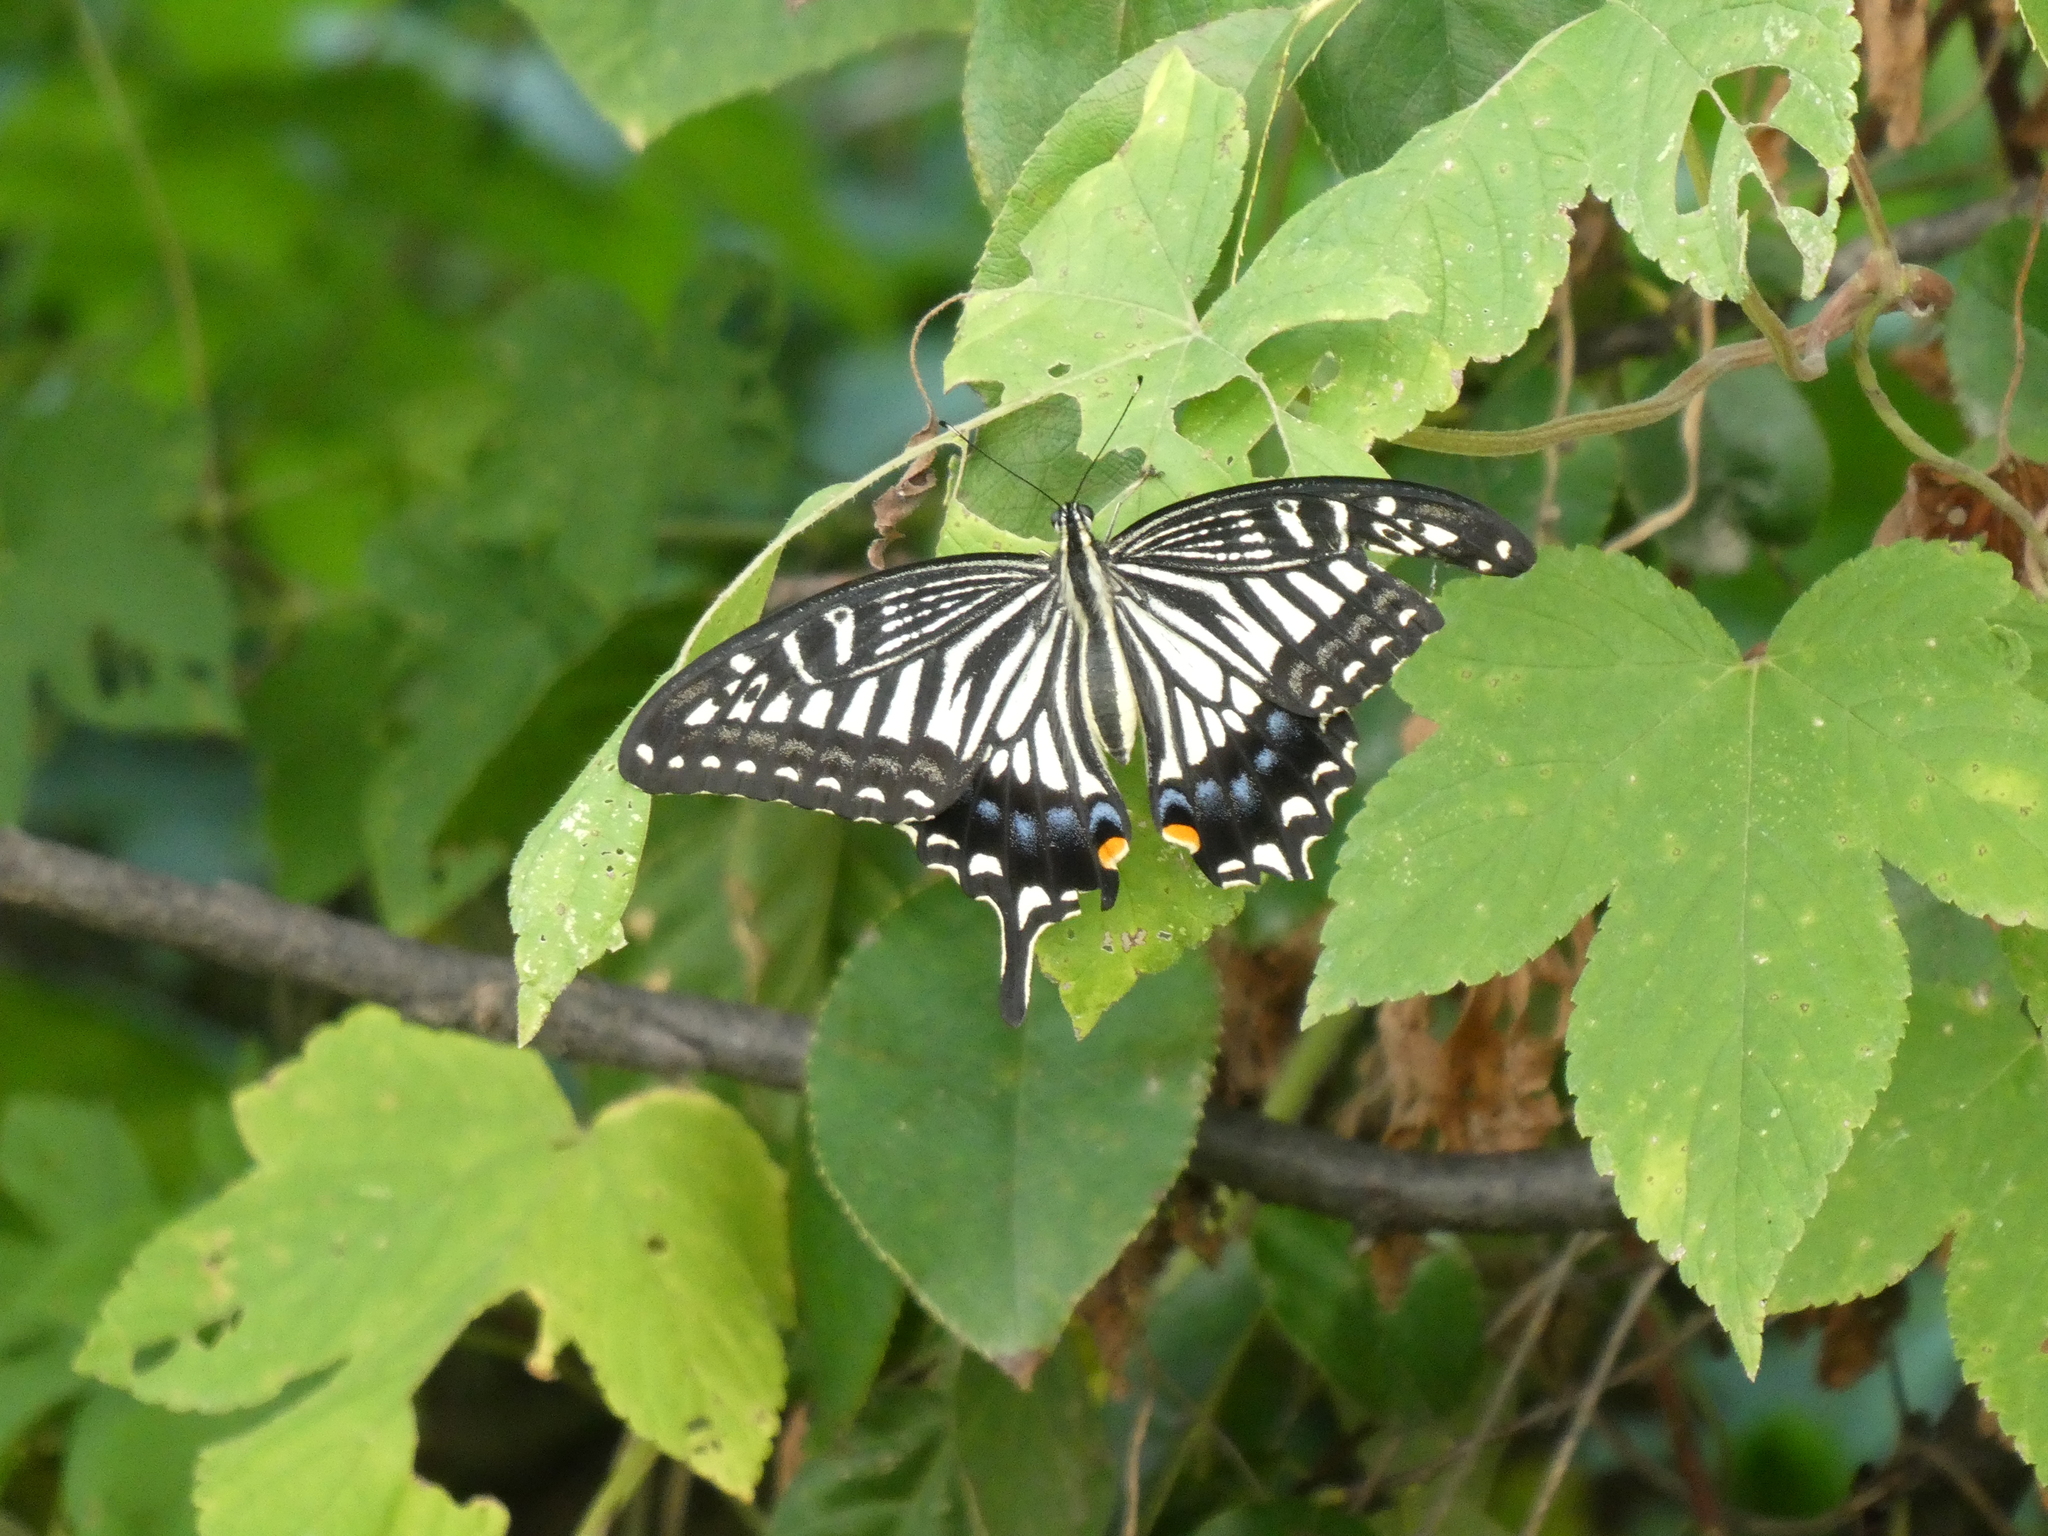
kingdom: Animalia
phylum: Arthropoda
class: Insecta
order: Lepidoptera
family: Papilionidae
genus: Papilio
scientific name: Papilio xuthus
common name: Asian swallowtail
